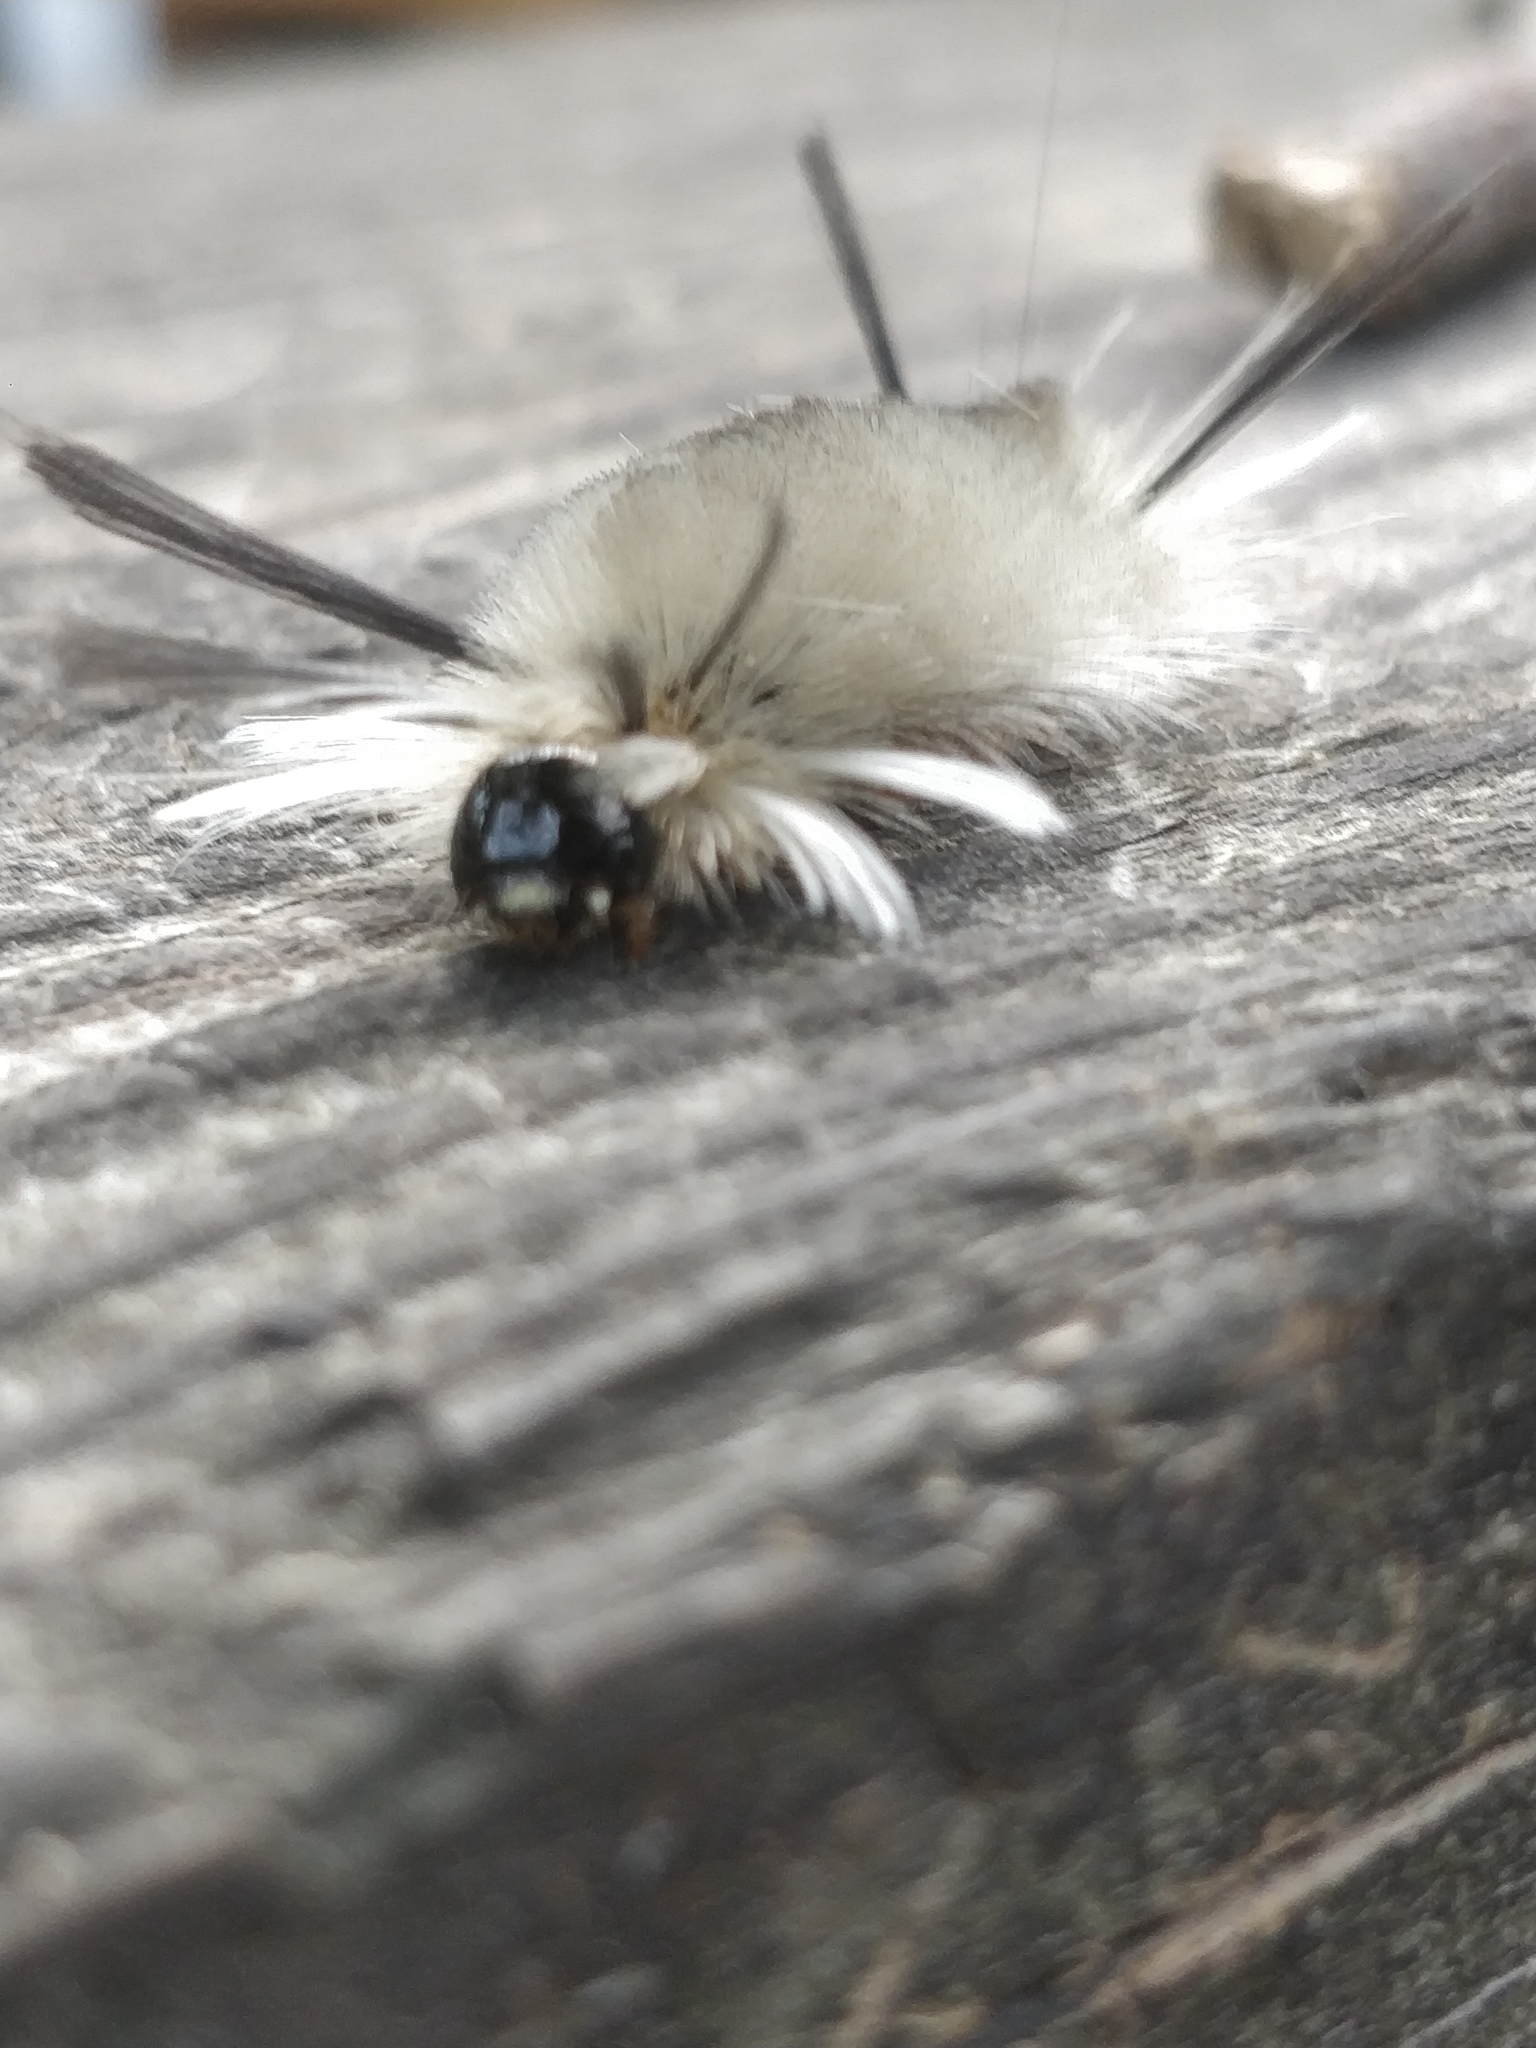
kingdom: Animalia
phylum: Arthropoda
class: Insecta
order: Lepidoptera
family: Erebidae
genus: Halysidota
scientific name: Halysidota tessellaris
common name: Banded tussock moth
